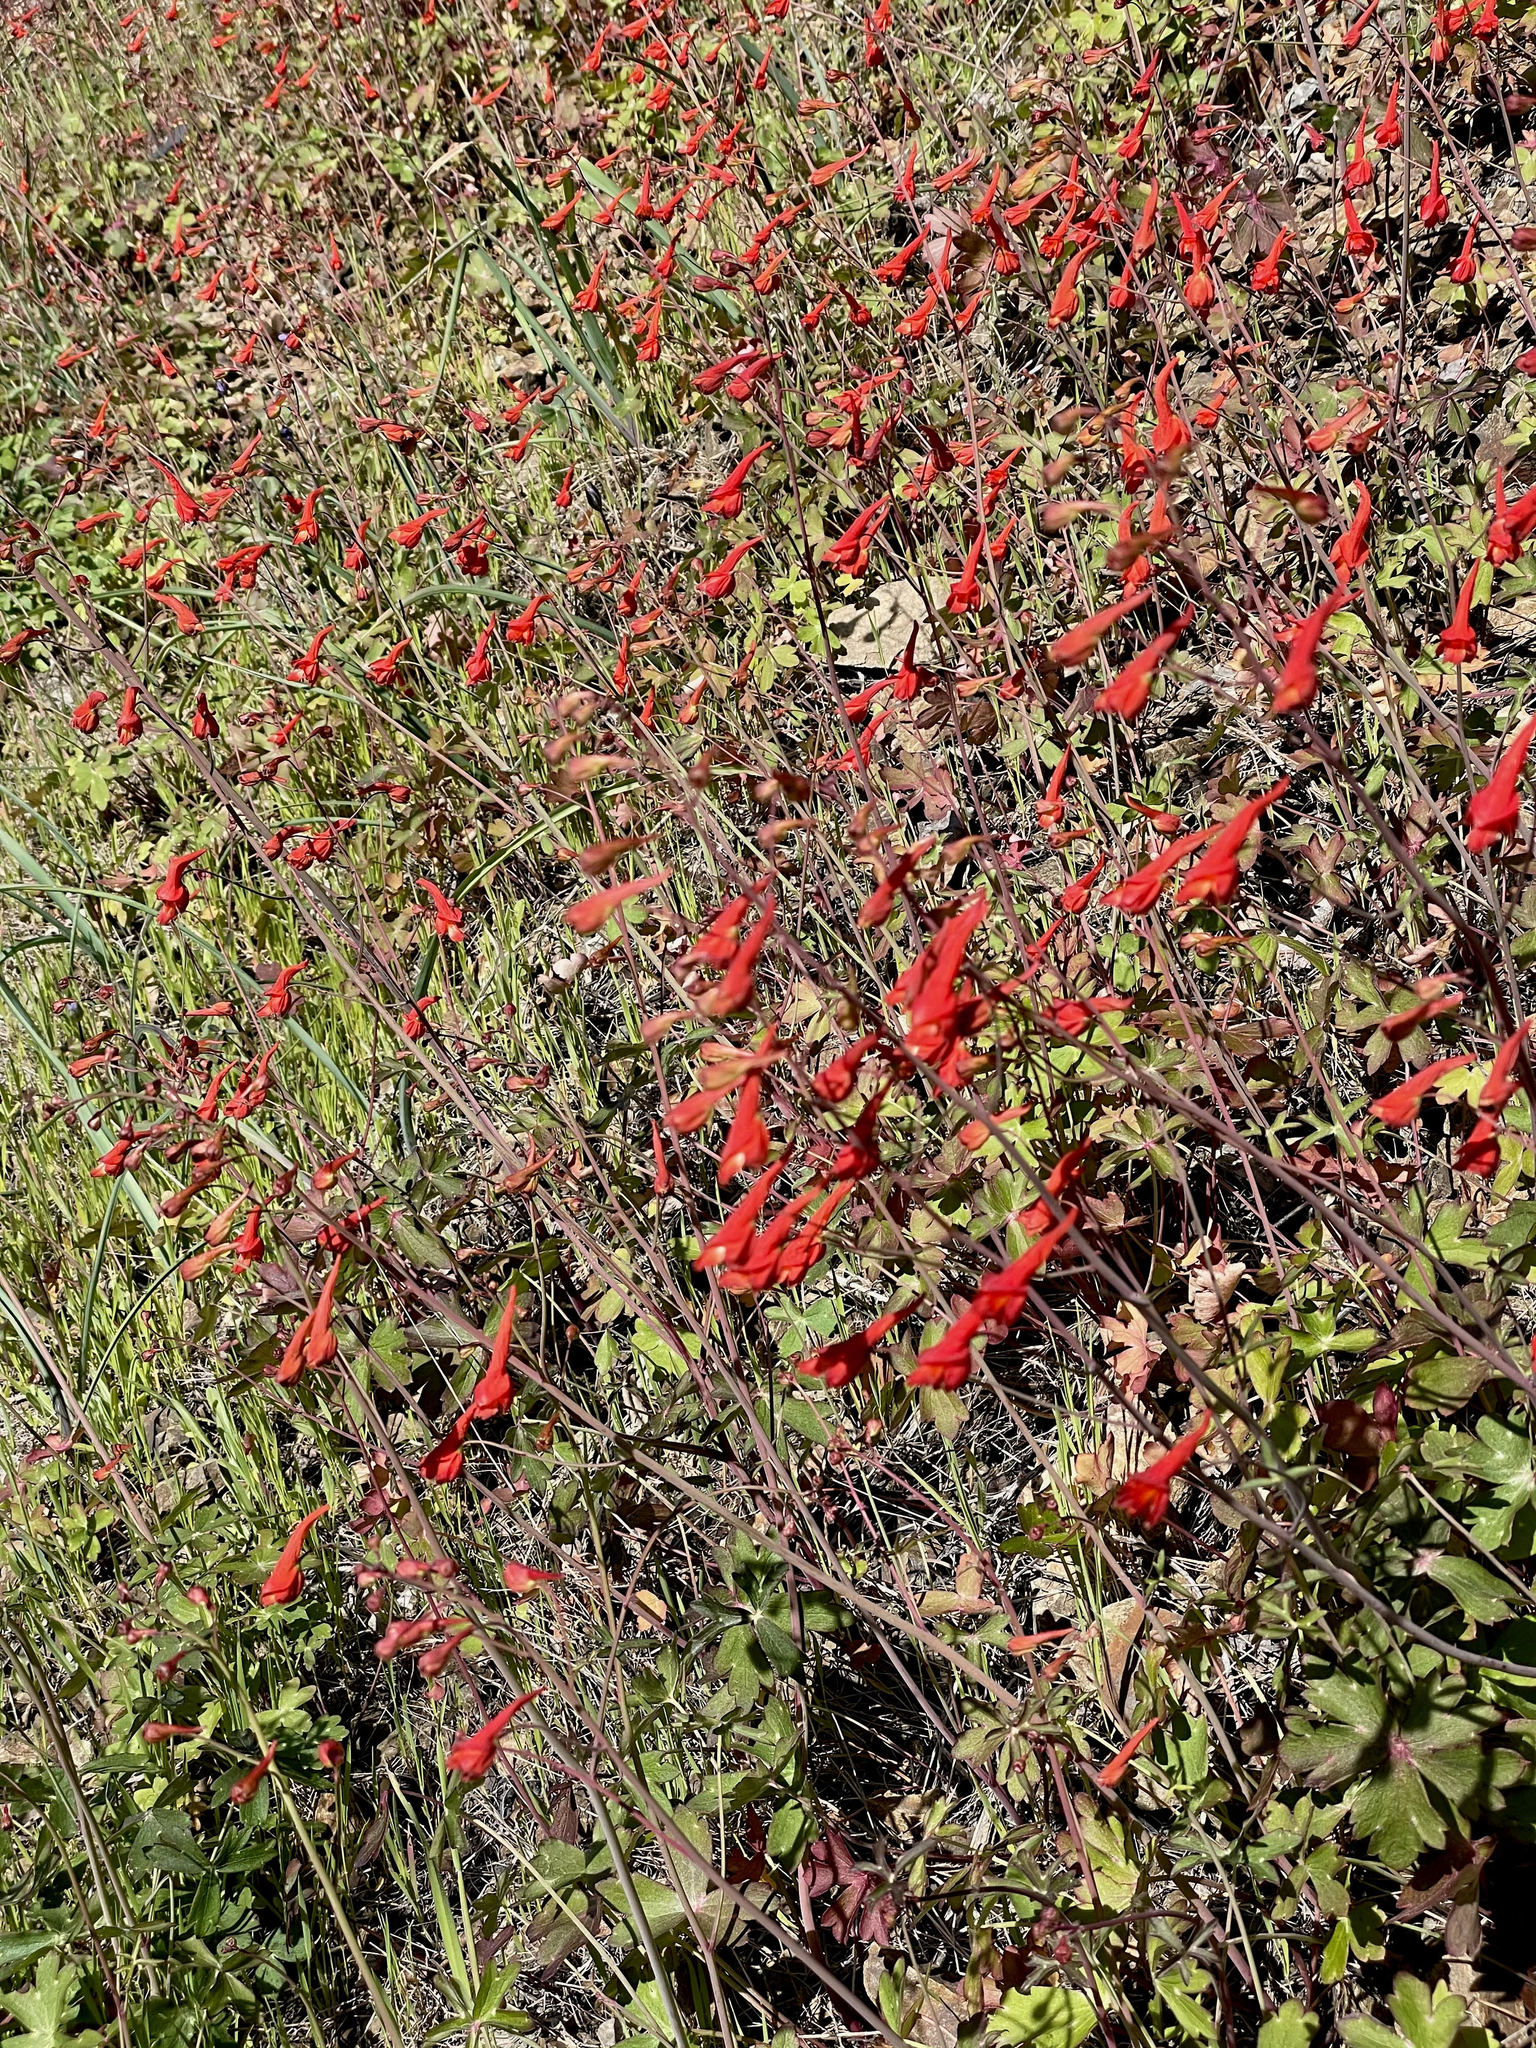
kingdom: Plantae
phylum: Tracheophyta
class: Magnoliopsida
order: Ranunculales
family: Ranunculaceae
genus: Delphinium
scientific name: Delphinium nudicaule
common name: Red larkspur
